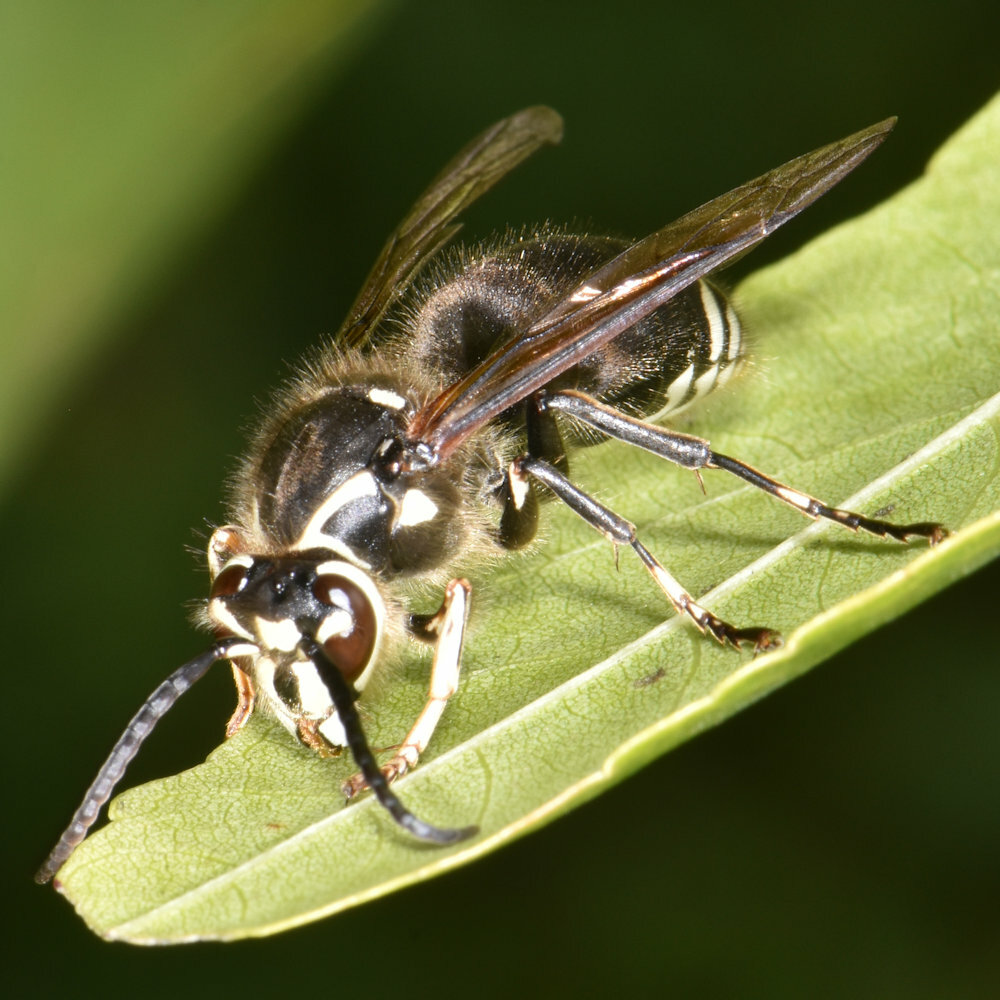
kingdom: Animalia
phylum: Arthropoda
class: Insecta
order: Hymenoptera
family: Vespidae
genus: Dolichovespula
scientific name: Dolichovespula maculata
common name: Bald-faced hornet
